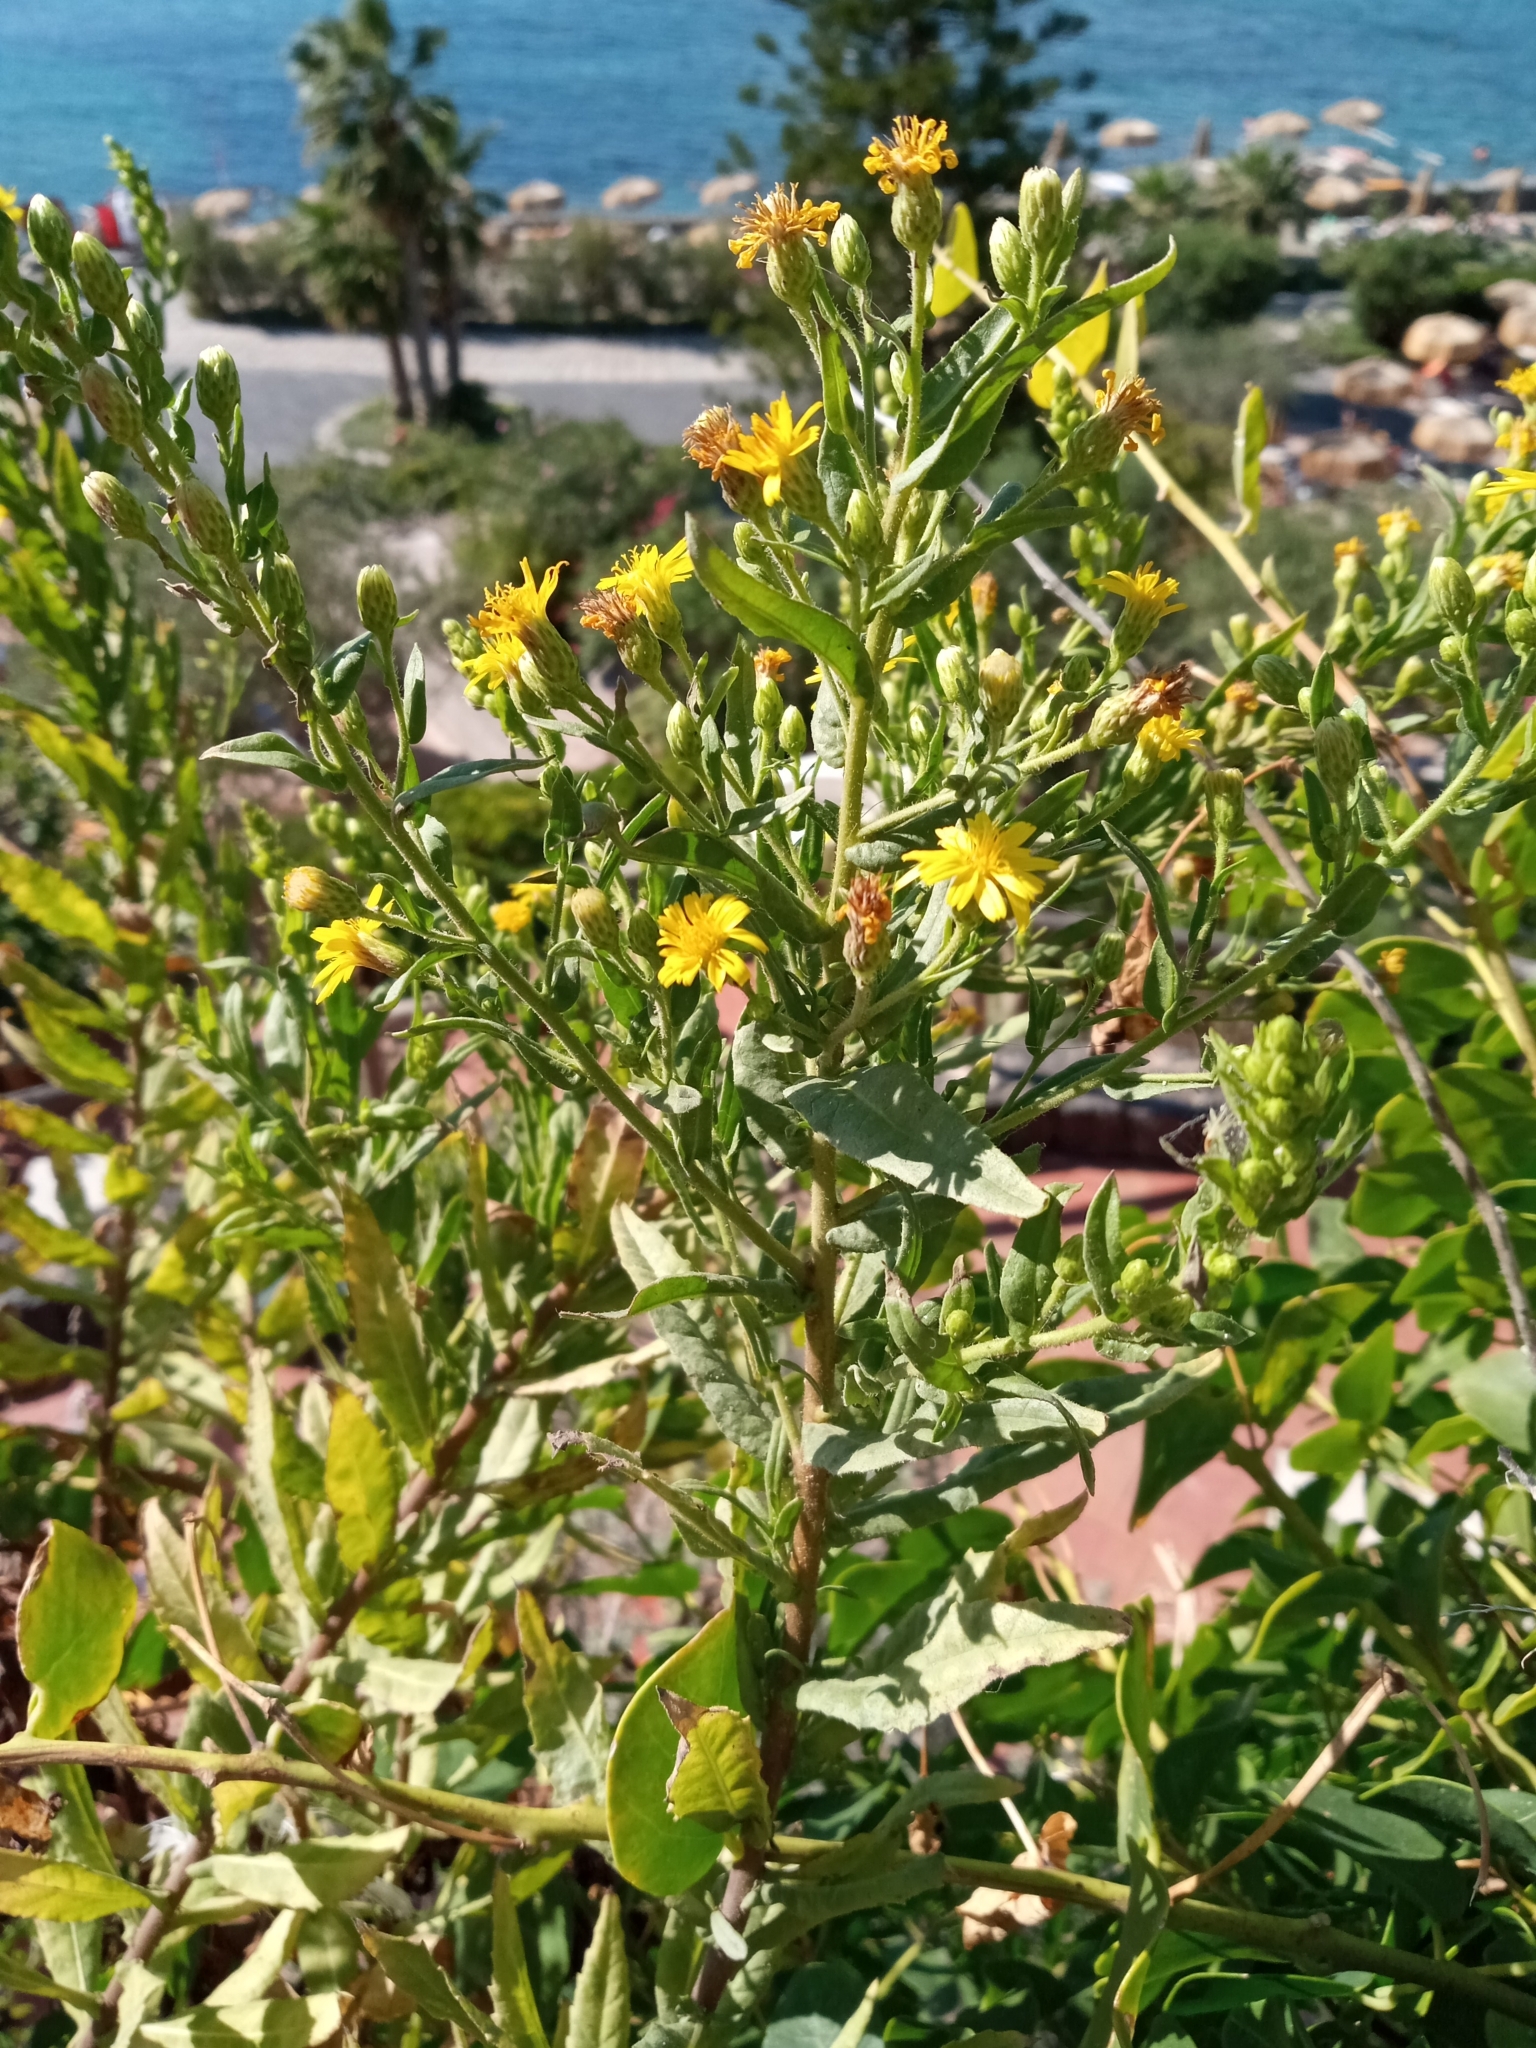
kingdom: Plantae
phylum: Tracheophyta
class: Magnoliopsida
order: Asterales
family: Asteraceae
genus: Dittrichia
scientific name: Dittrichia viscosa
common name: Woody fleabane
